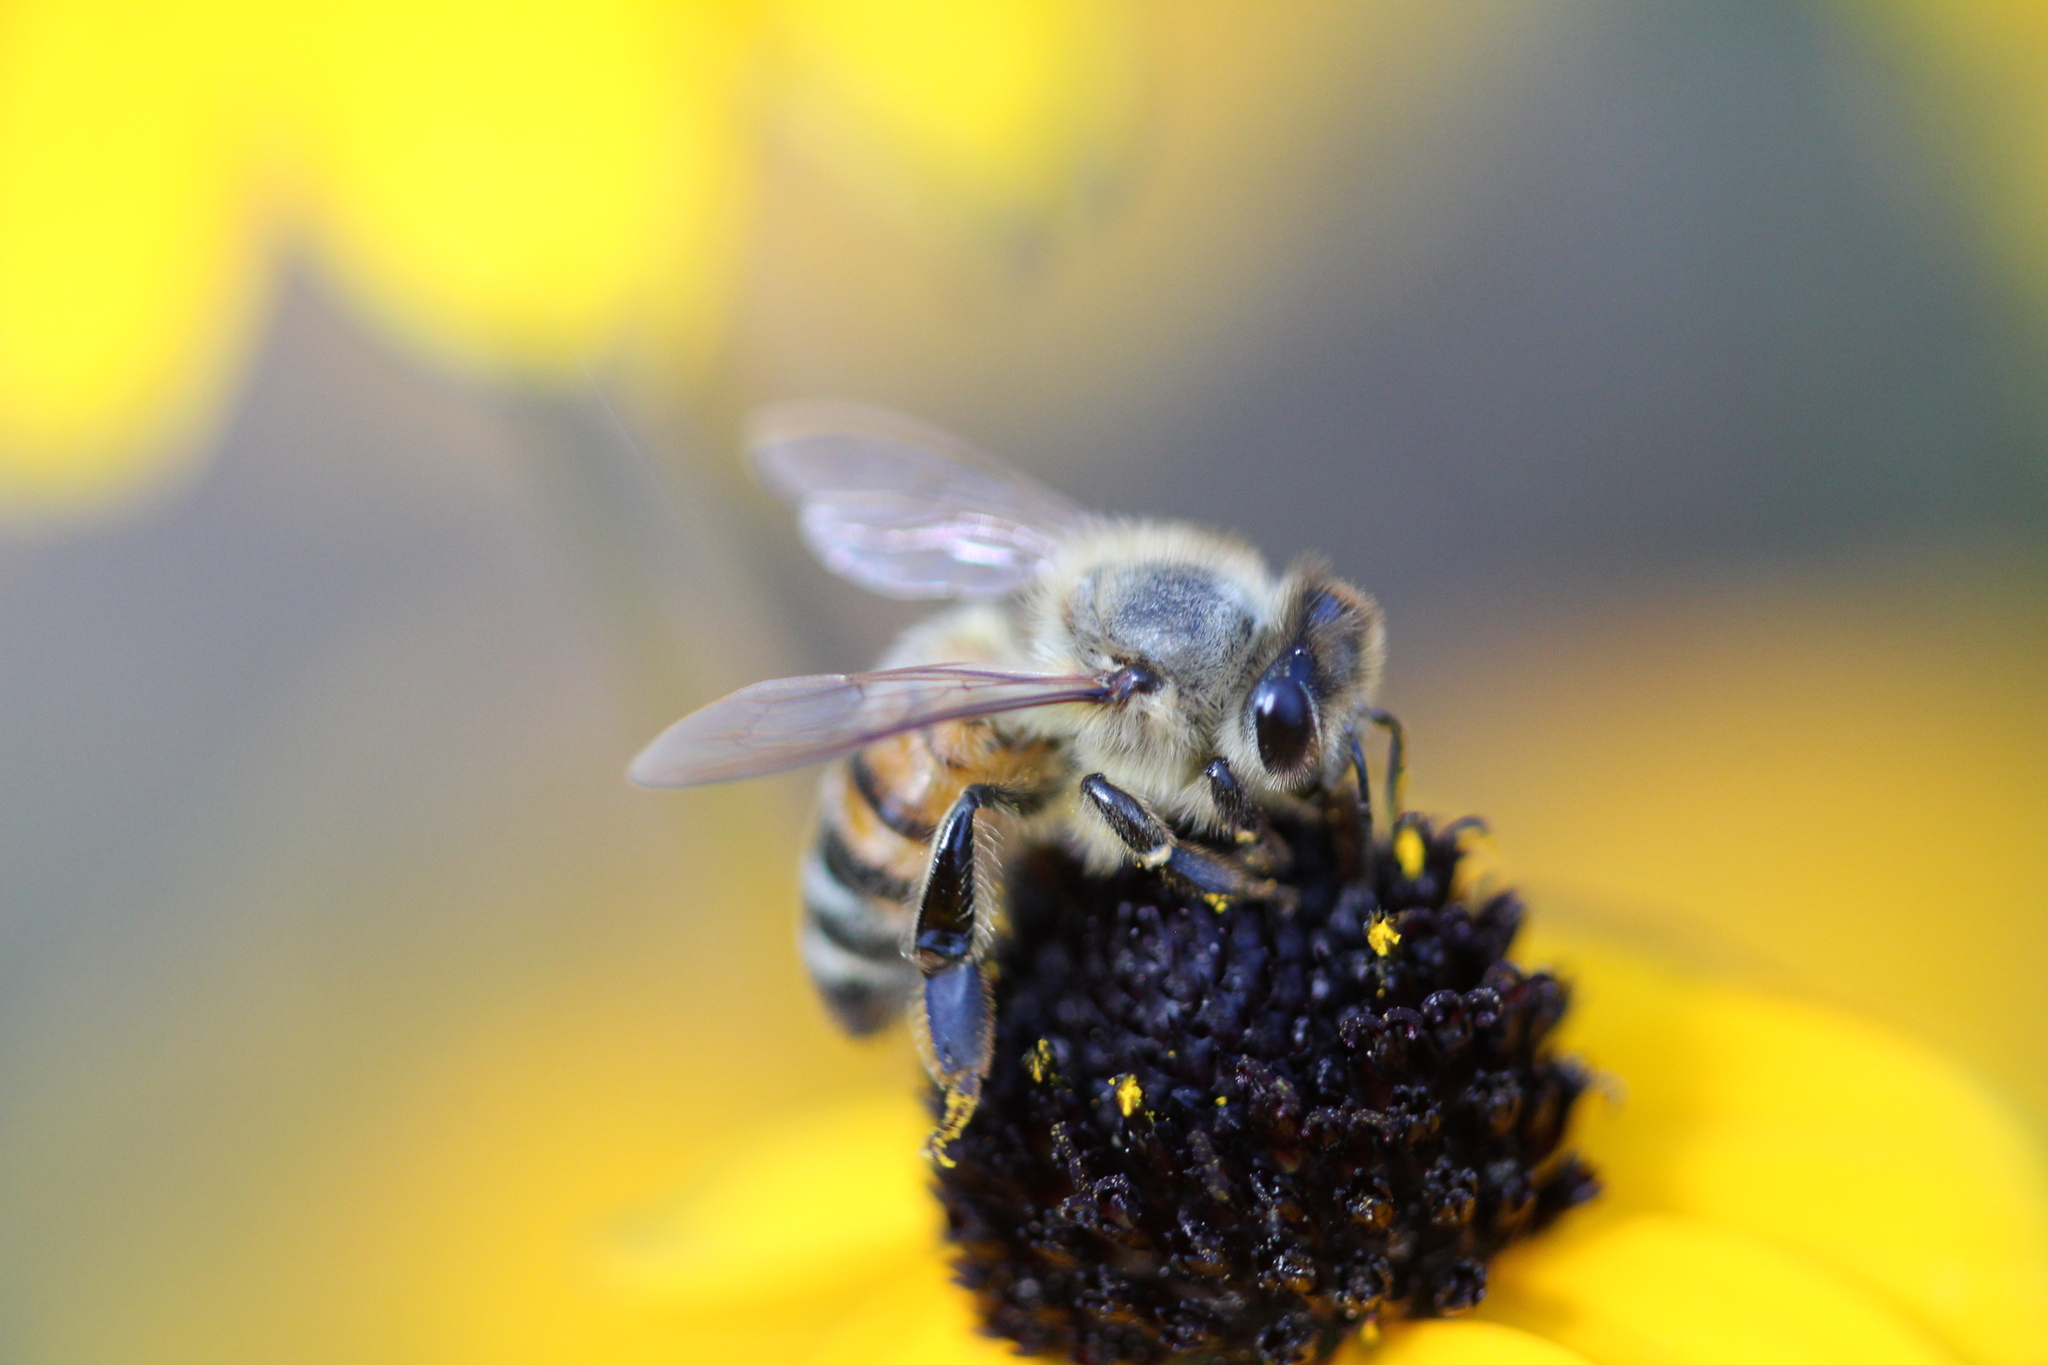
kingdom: Animalia
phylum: Arthropoda
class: Insecta
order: Hymenoptera
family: Apidae
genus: Apis
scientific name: Apis mellifera
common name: Honey bee
